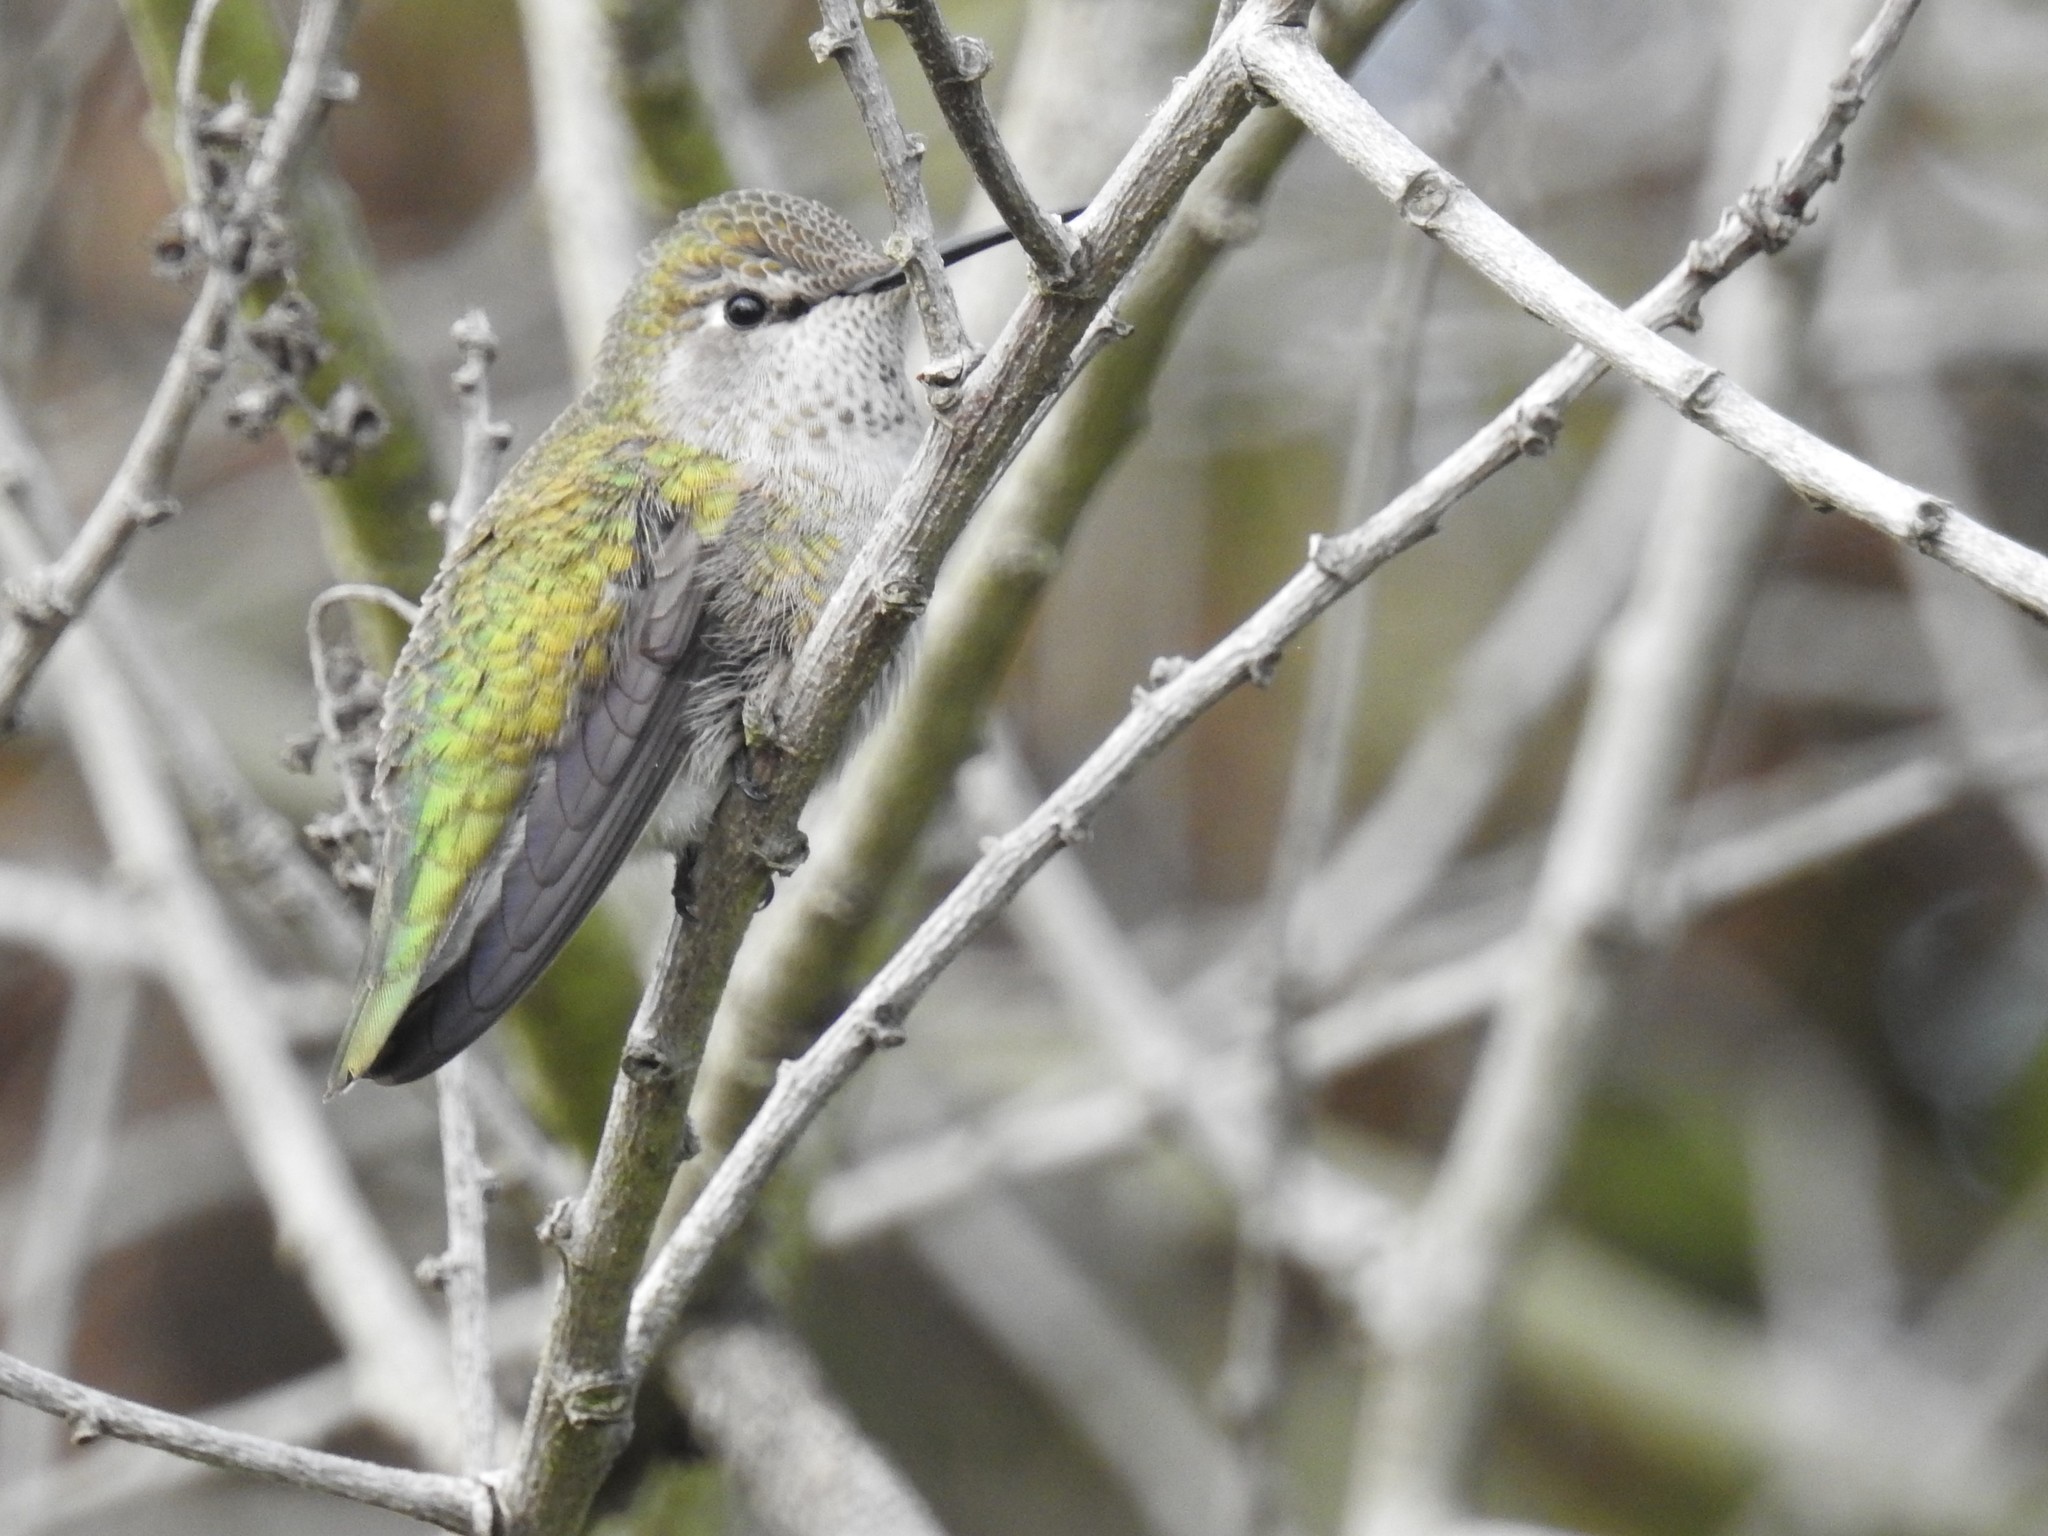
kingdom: Animalia
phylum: Chordata
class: Aves
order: Apodiformes
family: Trochilidae
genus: Calypte
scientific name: Calypte anna
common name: Anna's hummingbird
